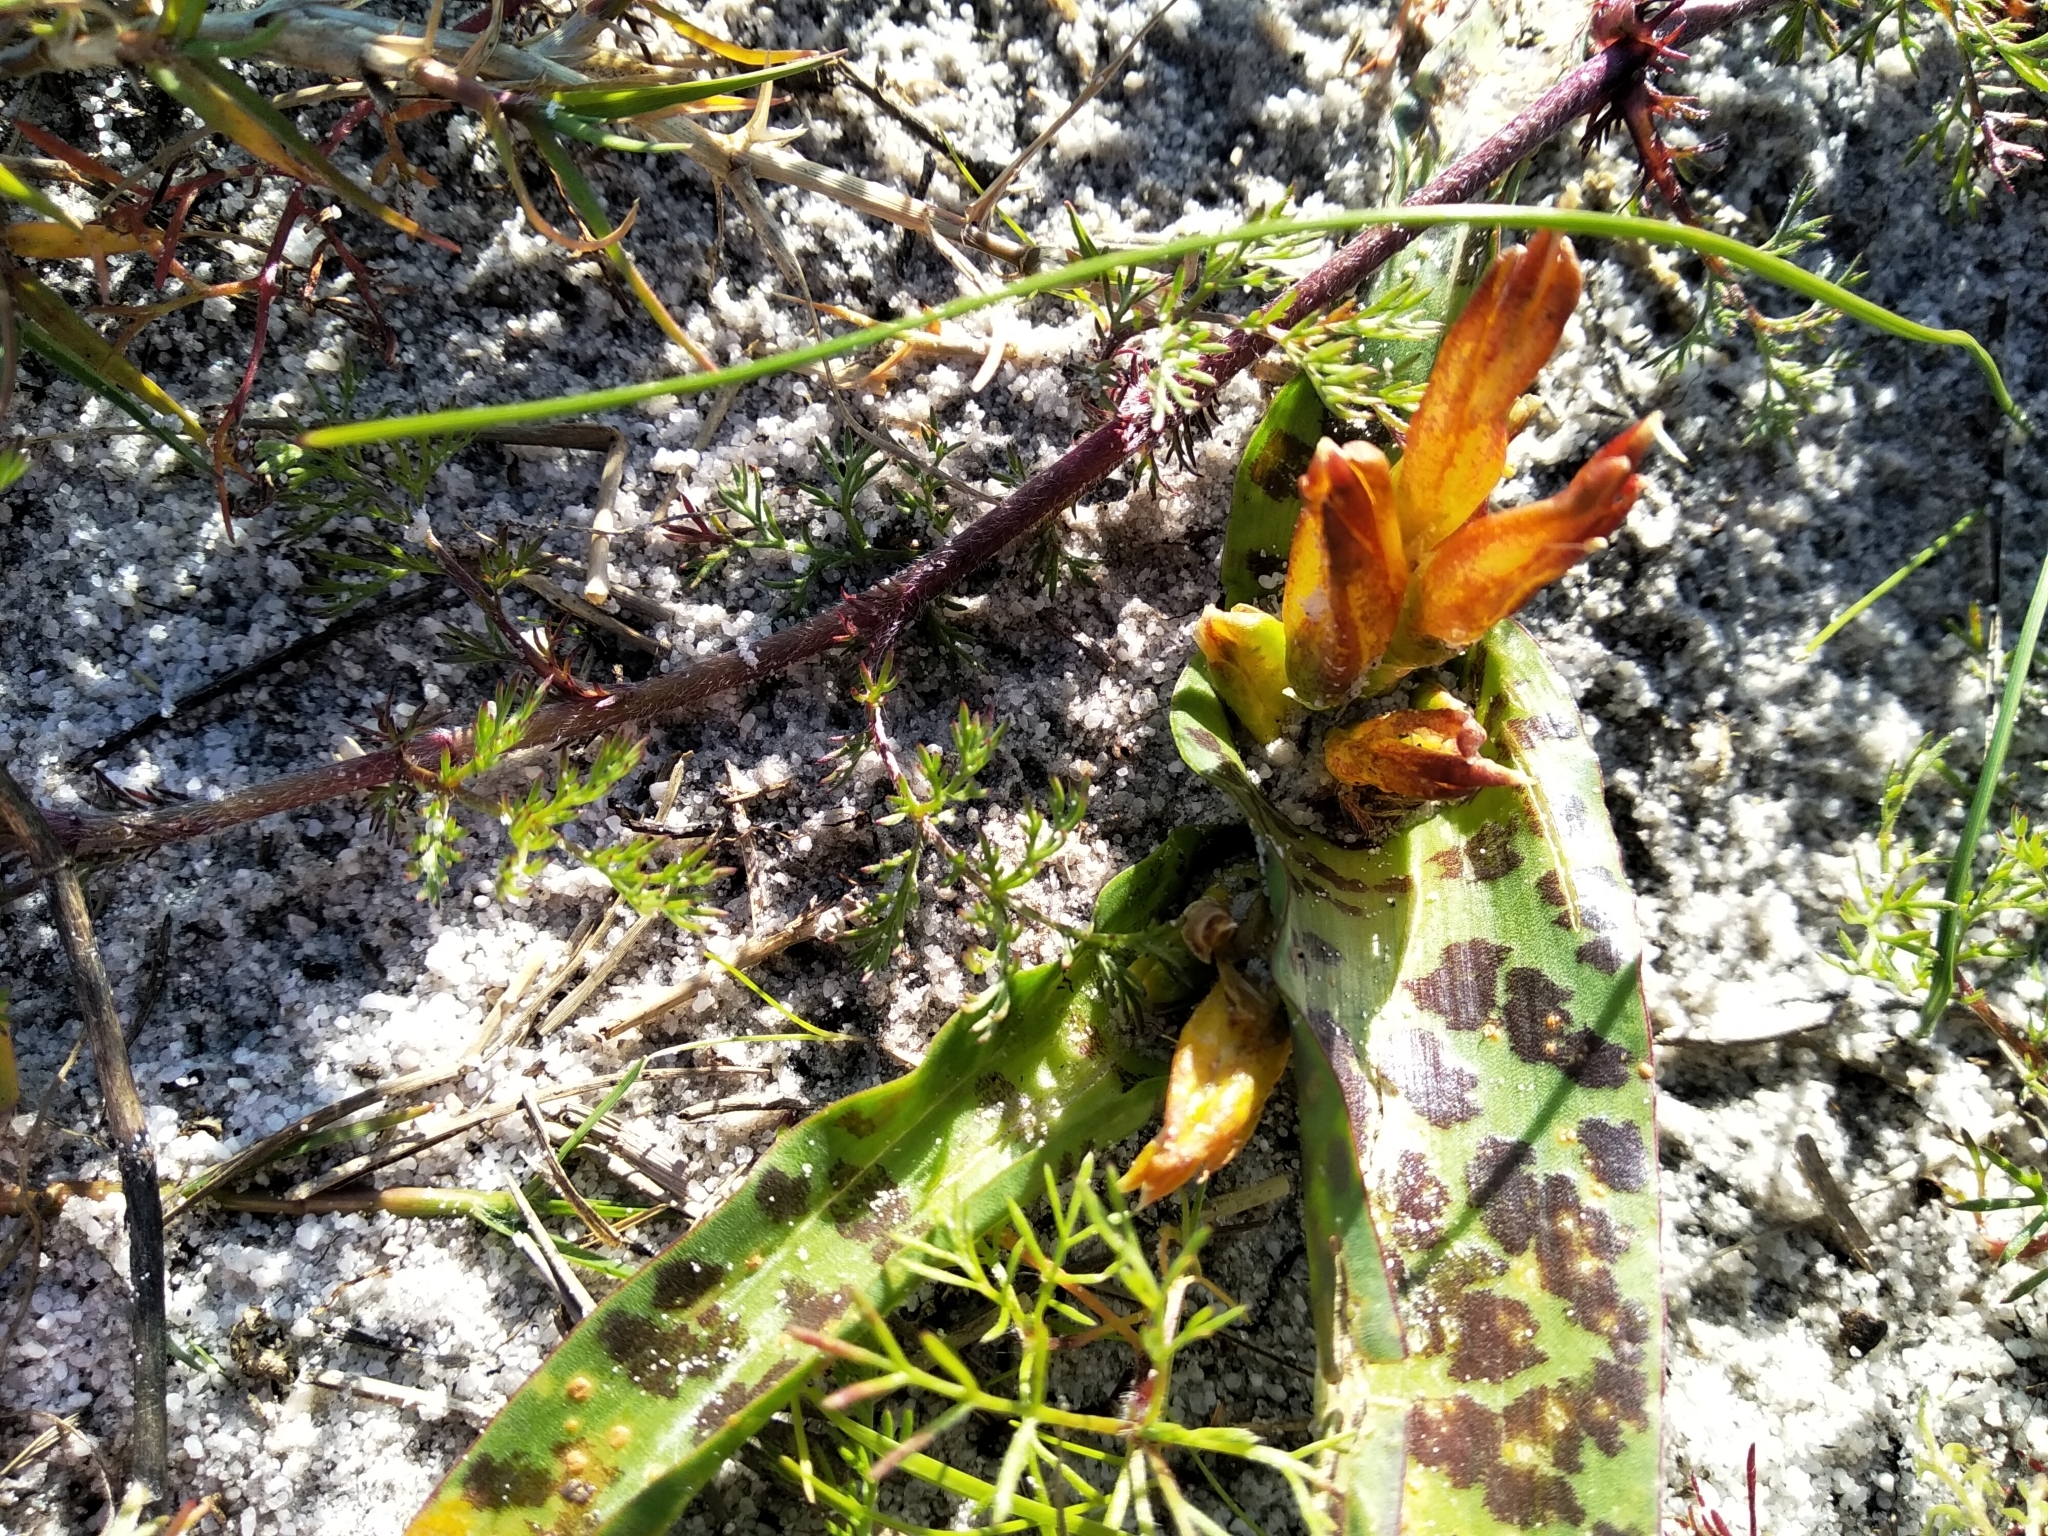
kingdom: Plantae
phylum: Tracheophyta
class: Liliopsida
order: Asparagales
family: Asparagaceae
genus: Lachenalia
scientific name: Lachenalia reflexa
